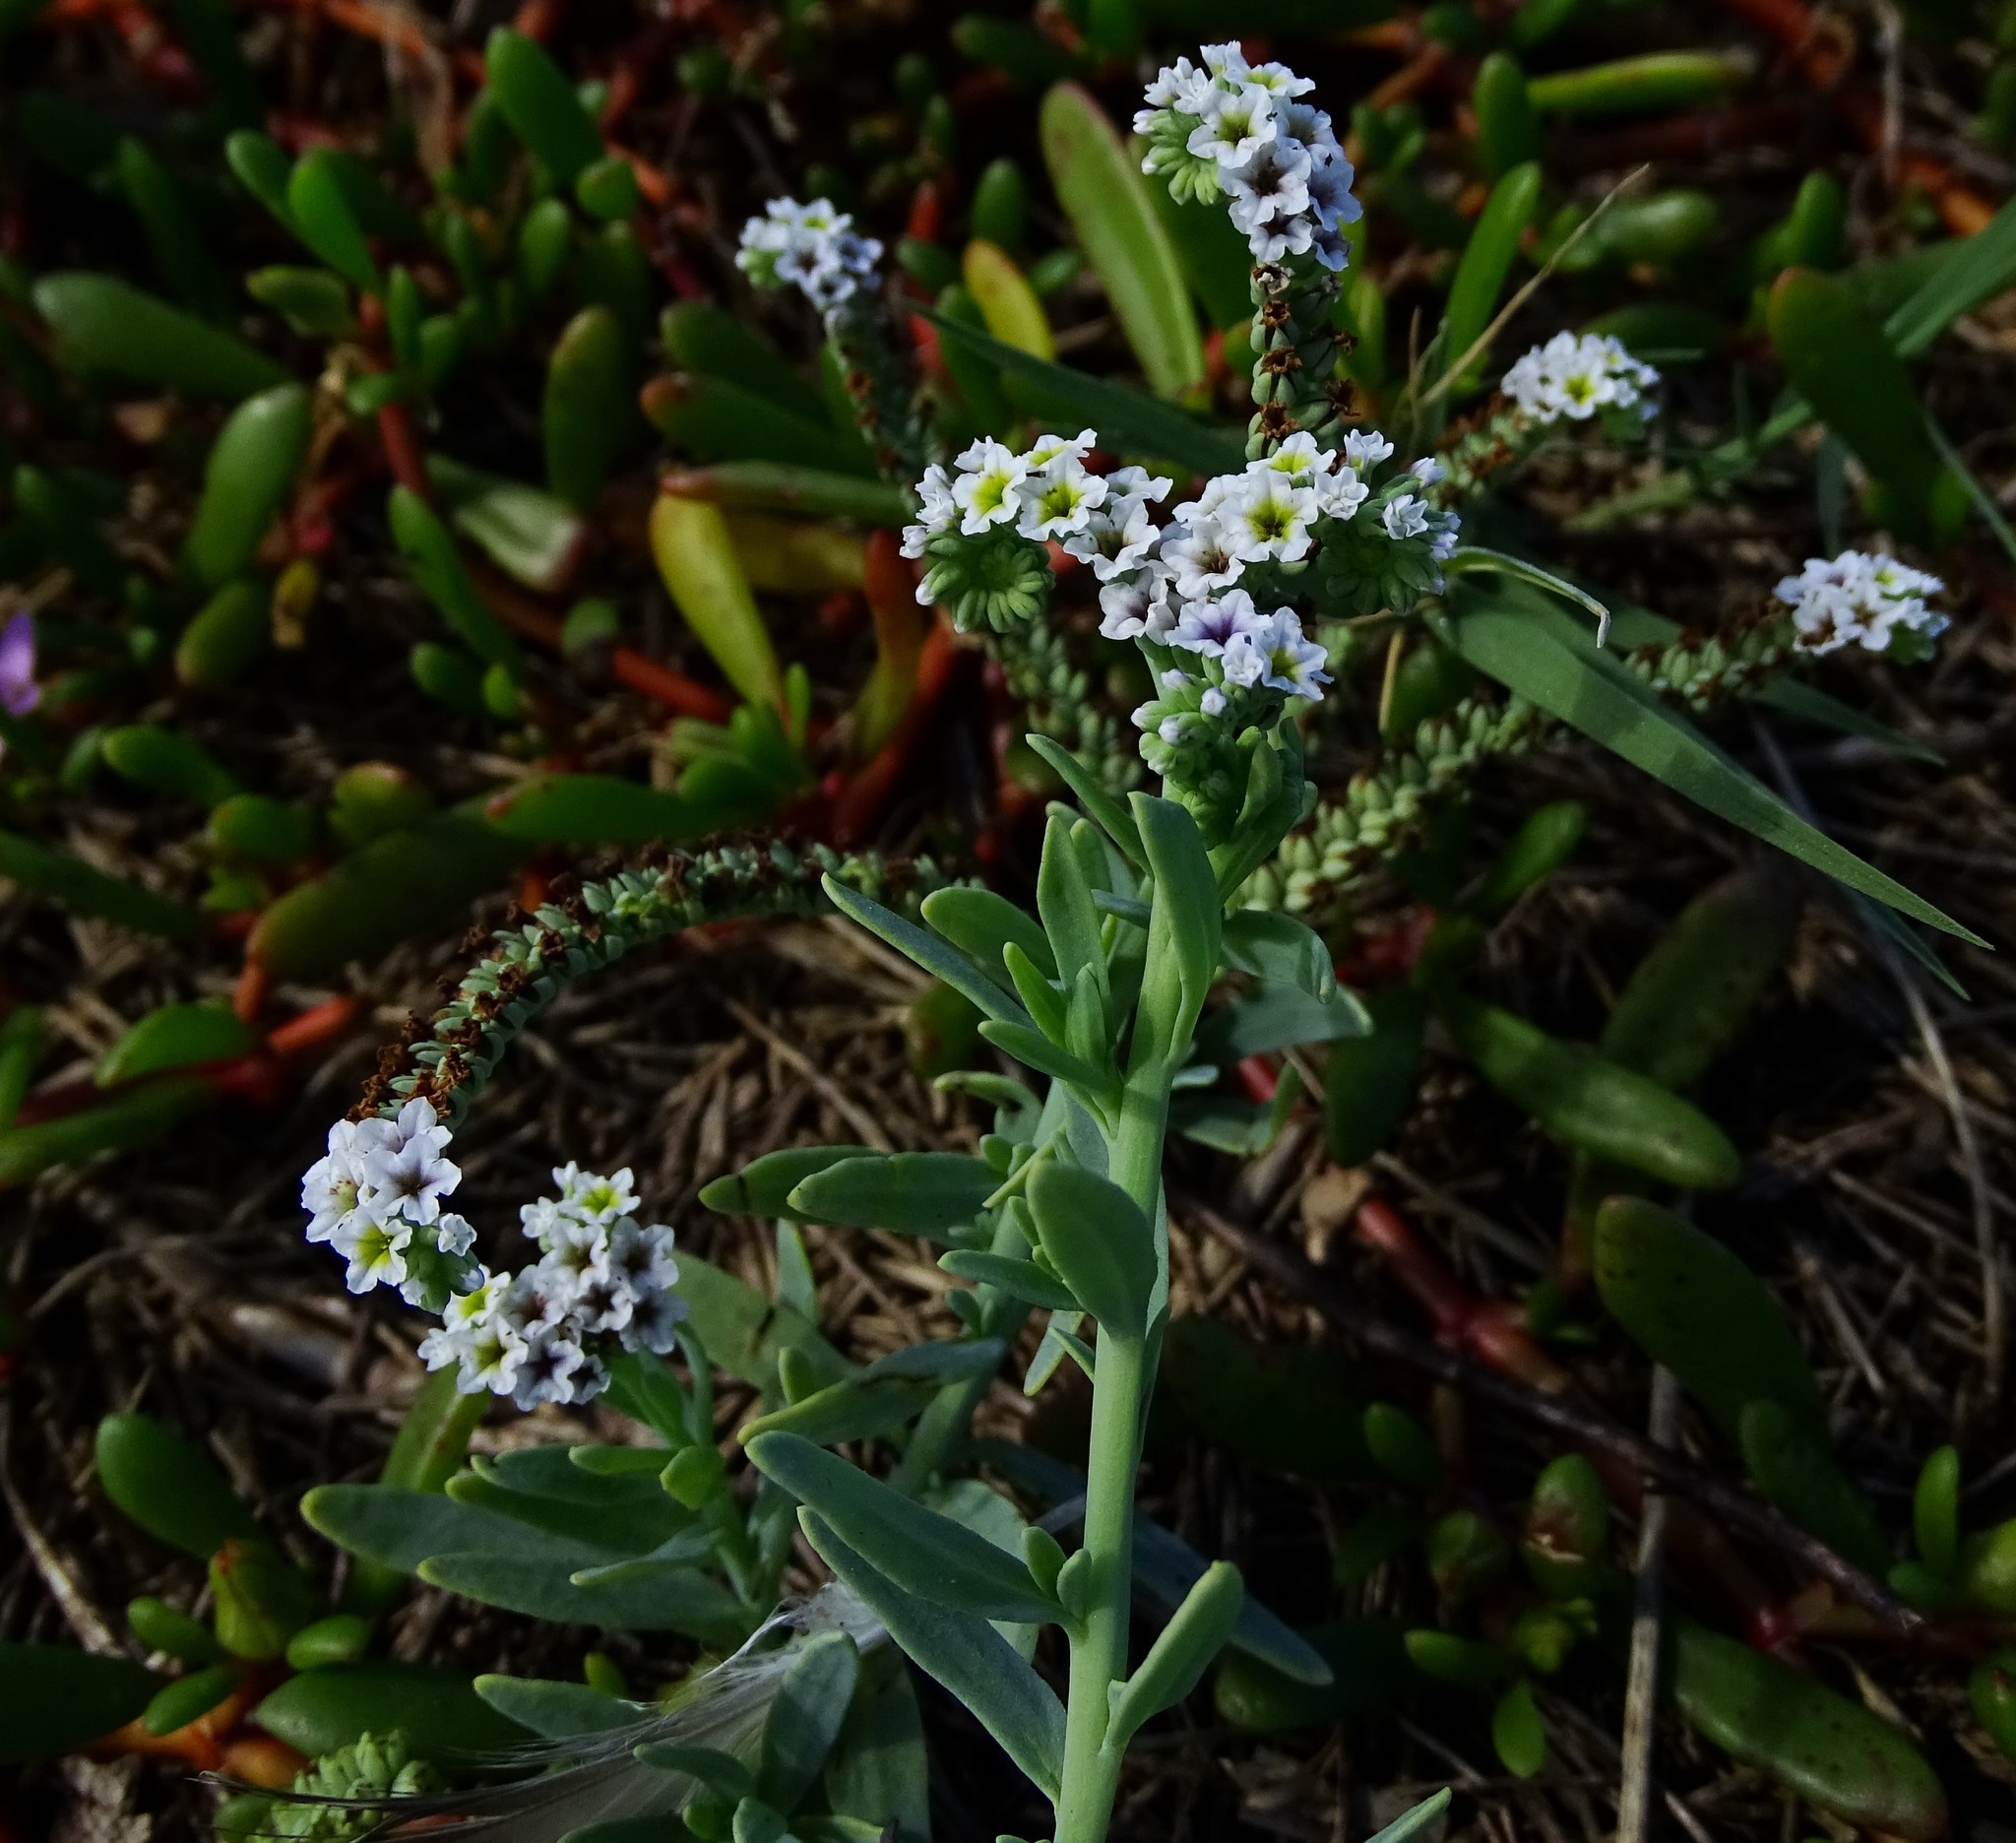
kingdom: Plantae
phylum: Tracheophyta
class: Magnoliopsida
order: Boraginales
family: Heliotropiaceae
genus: Heliotropium
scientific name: Heliotropium curassavicum
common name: Seaside heliotrope
